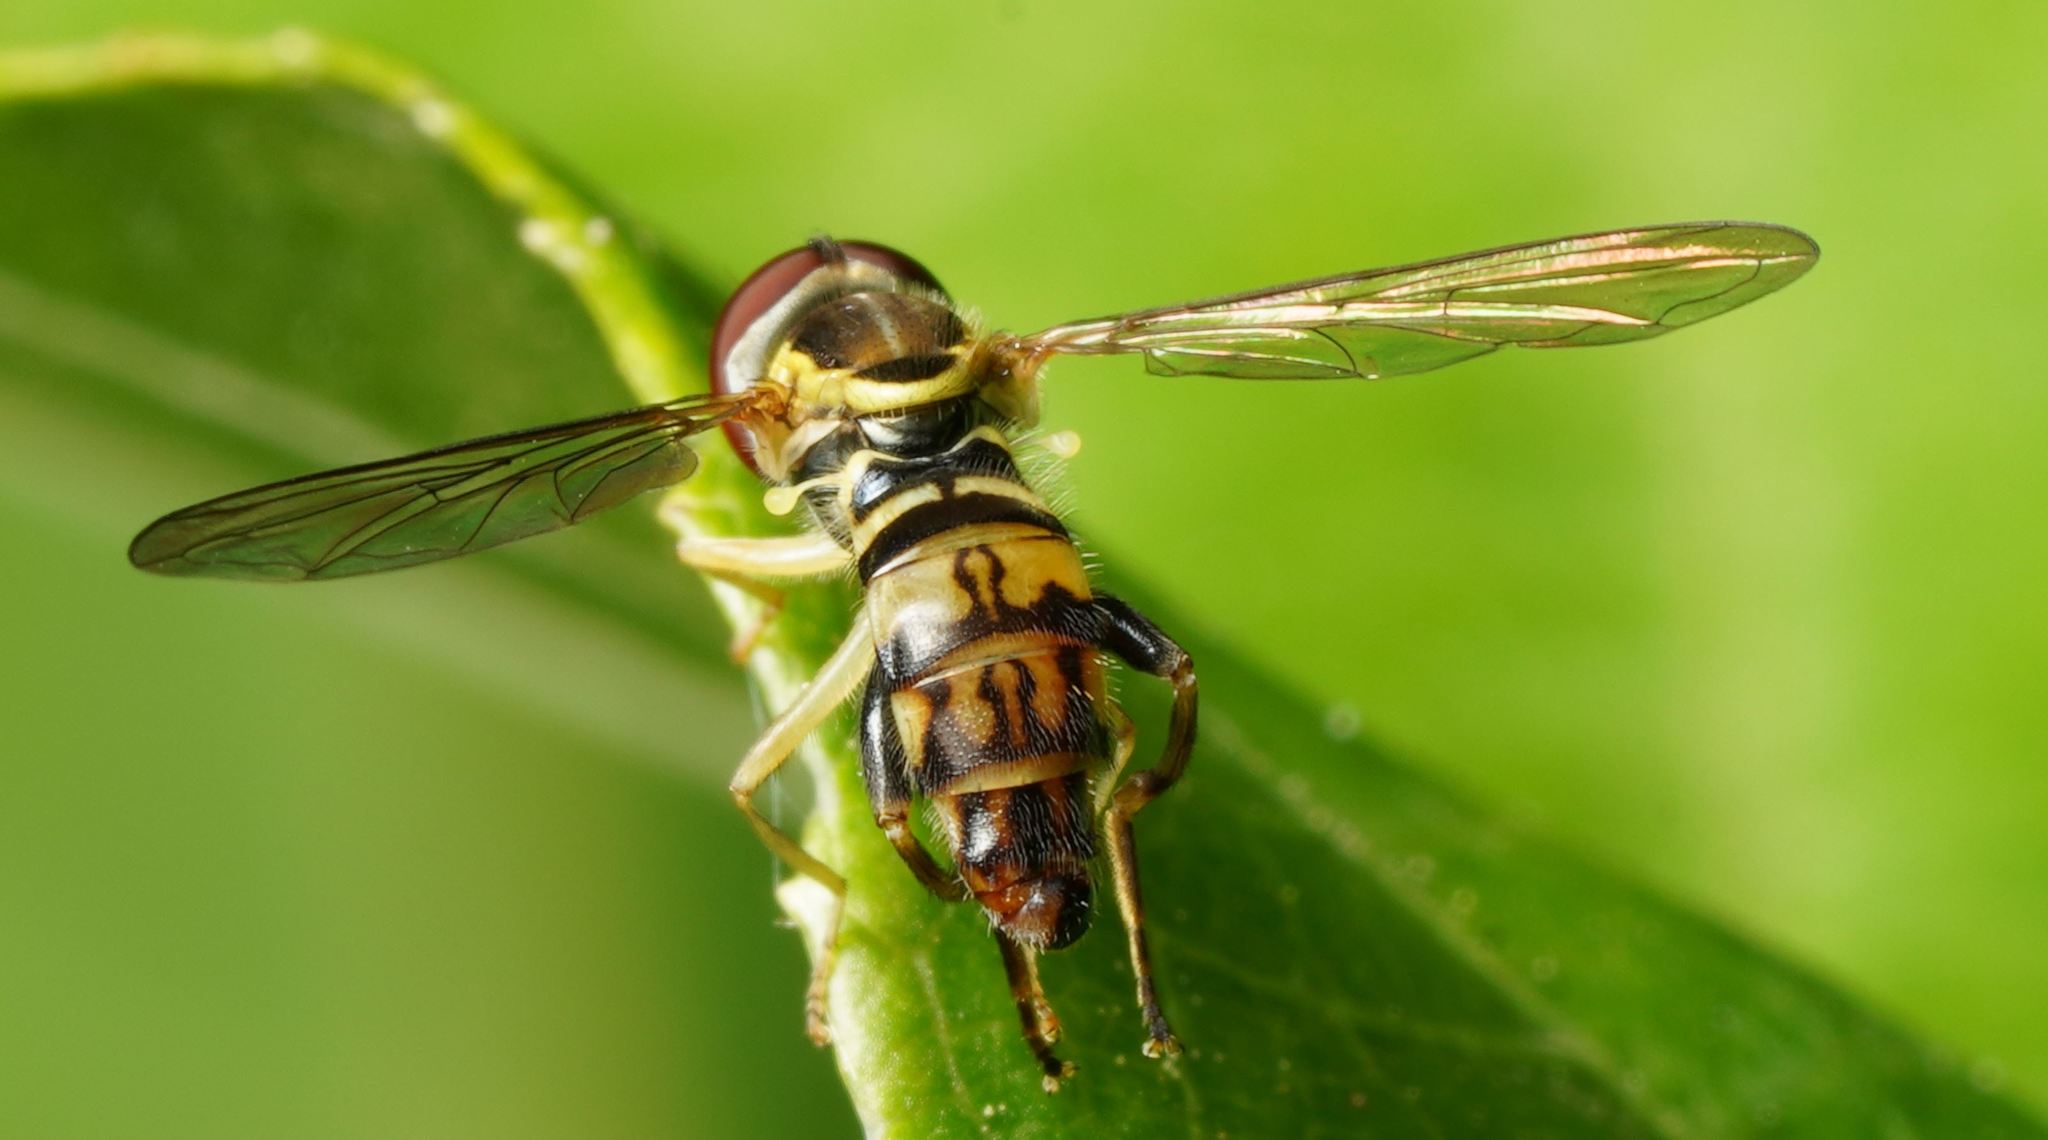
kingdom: Animalia
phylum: Arthropoda
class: Insecta
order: Diptera
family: Syrphidae
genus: Toxomerus
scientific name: Toxomerus geminatus
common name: Eastern calligrapher
